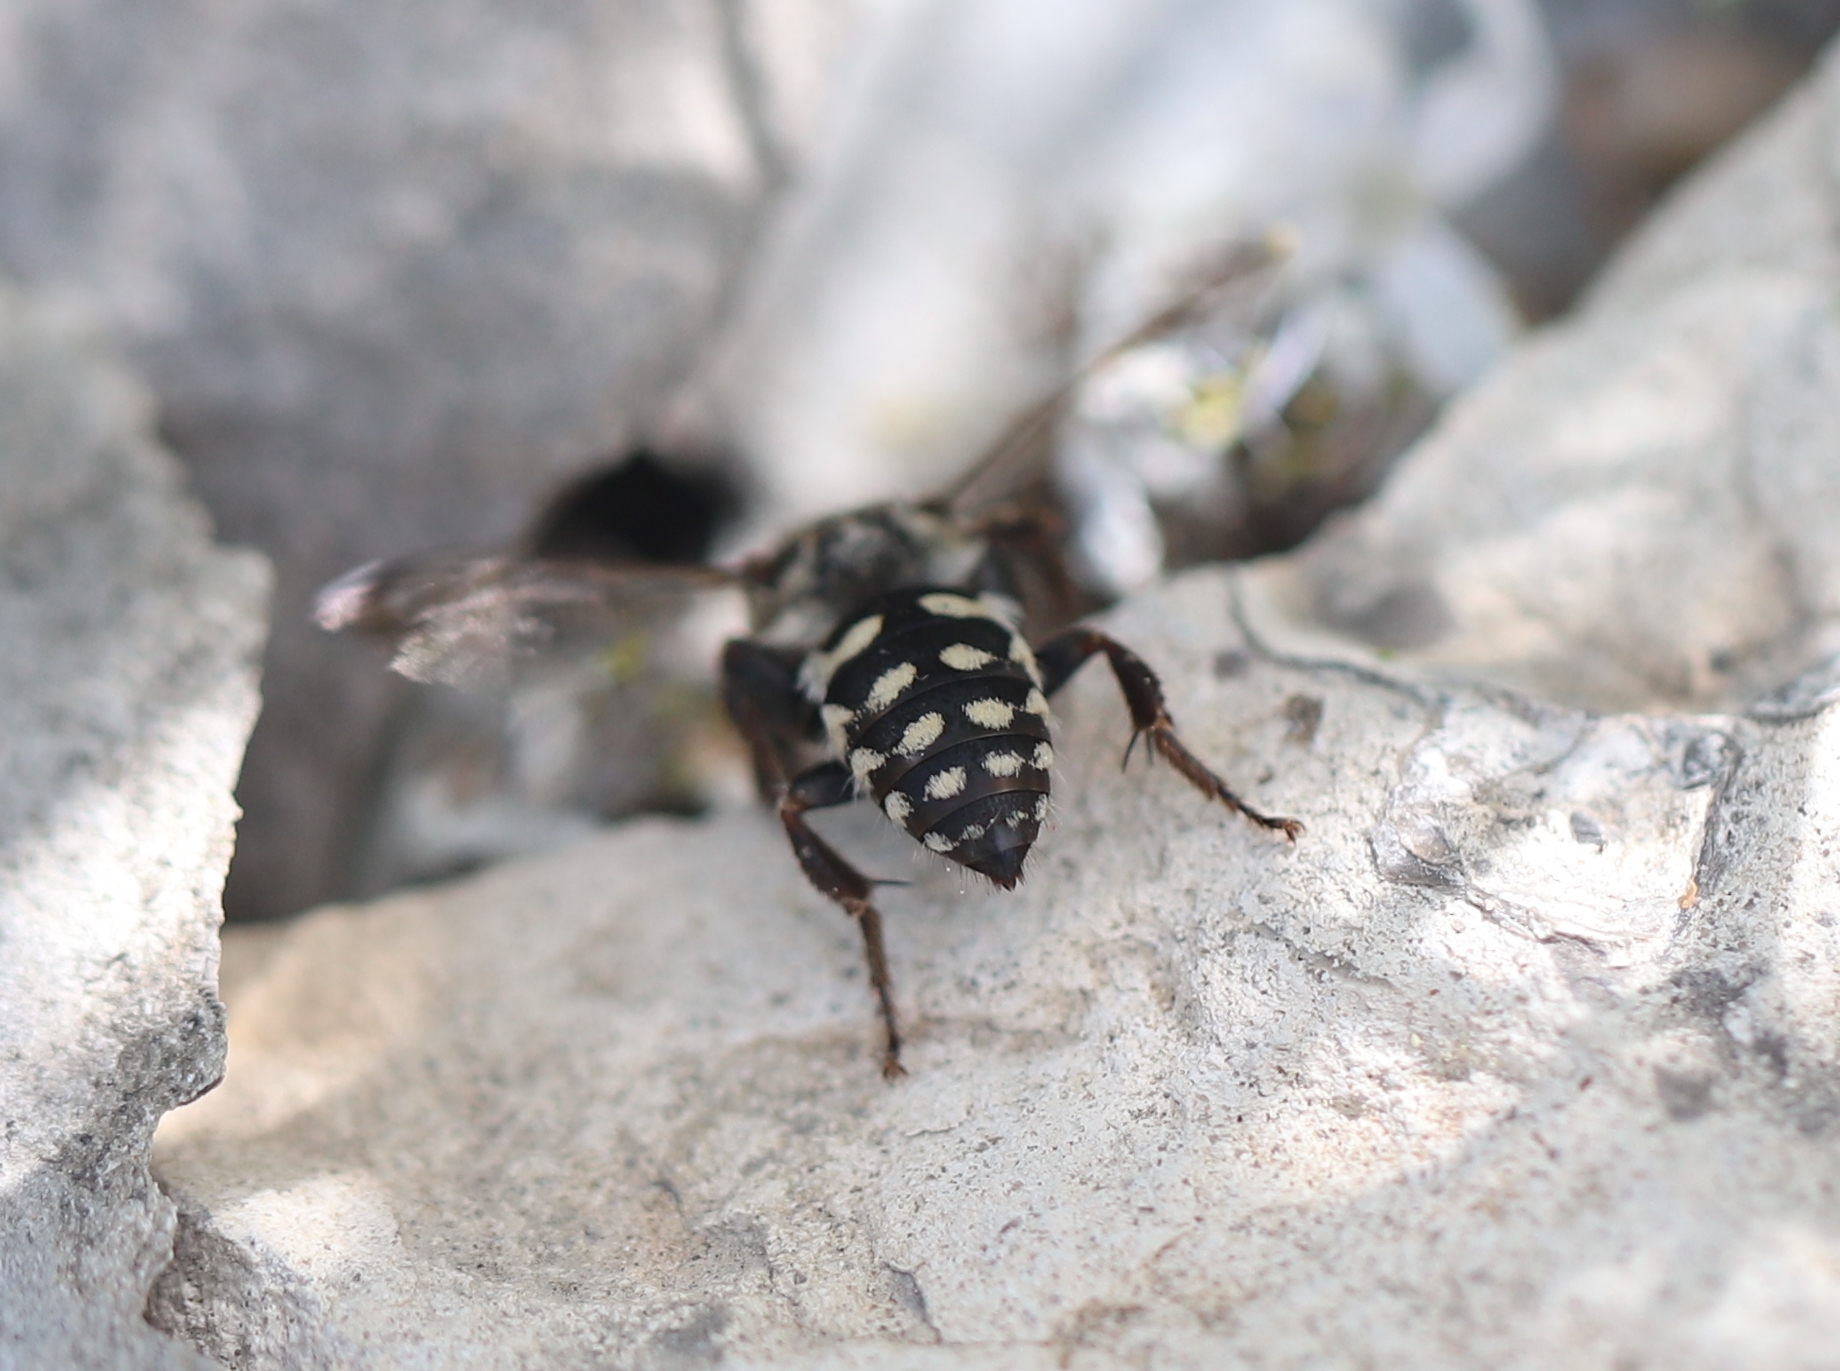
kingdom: Animalia
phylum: Arthropoda
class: Insecta
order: Hymenoptera
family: Apidae
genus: Brachymelecta
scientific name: Brachymelecta californica
